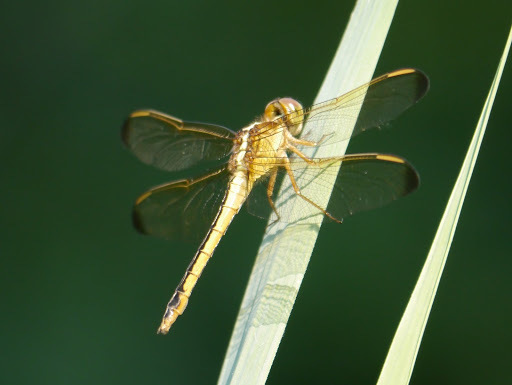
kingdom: Animalia
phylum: Arthropoda
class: Insecta
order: Odonata
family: Libellulidae
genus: Libellula
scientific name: Libellula needhami
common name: Needham's skimmer
